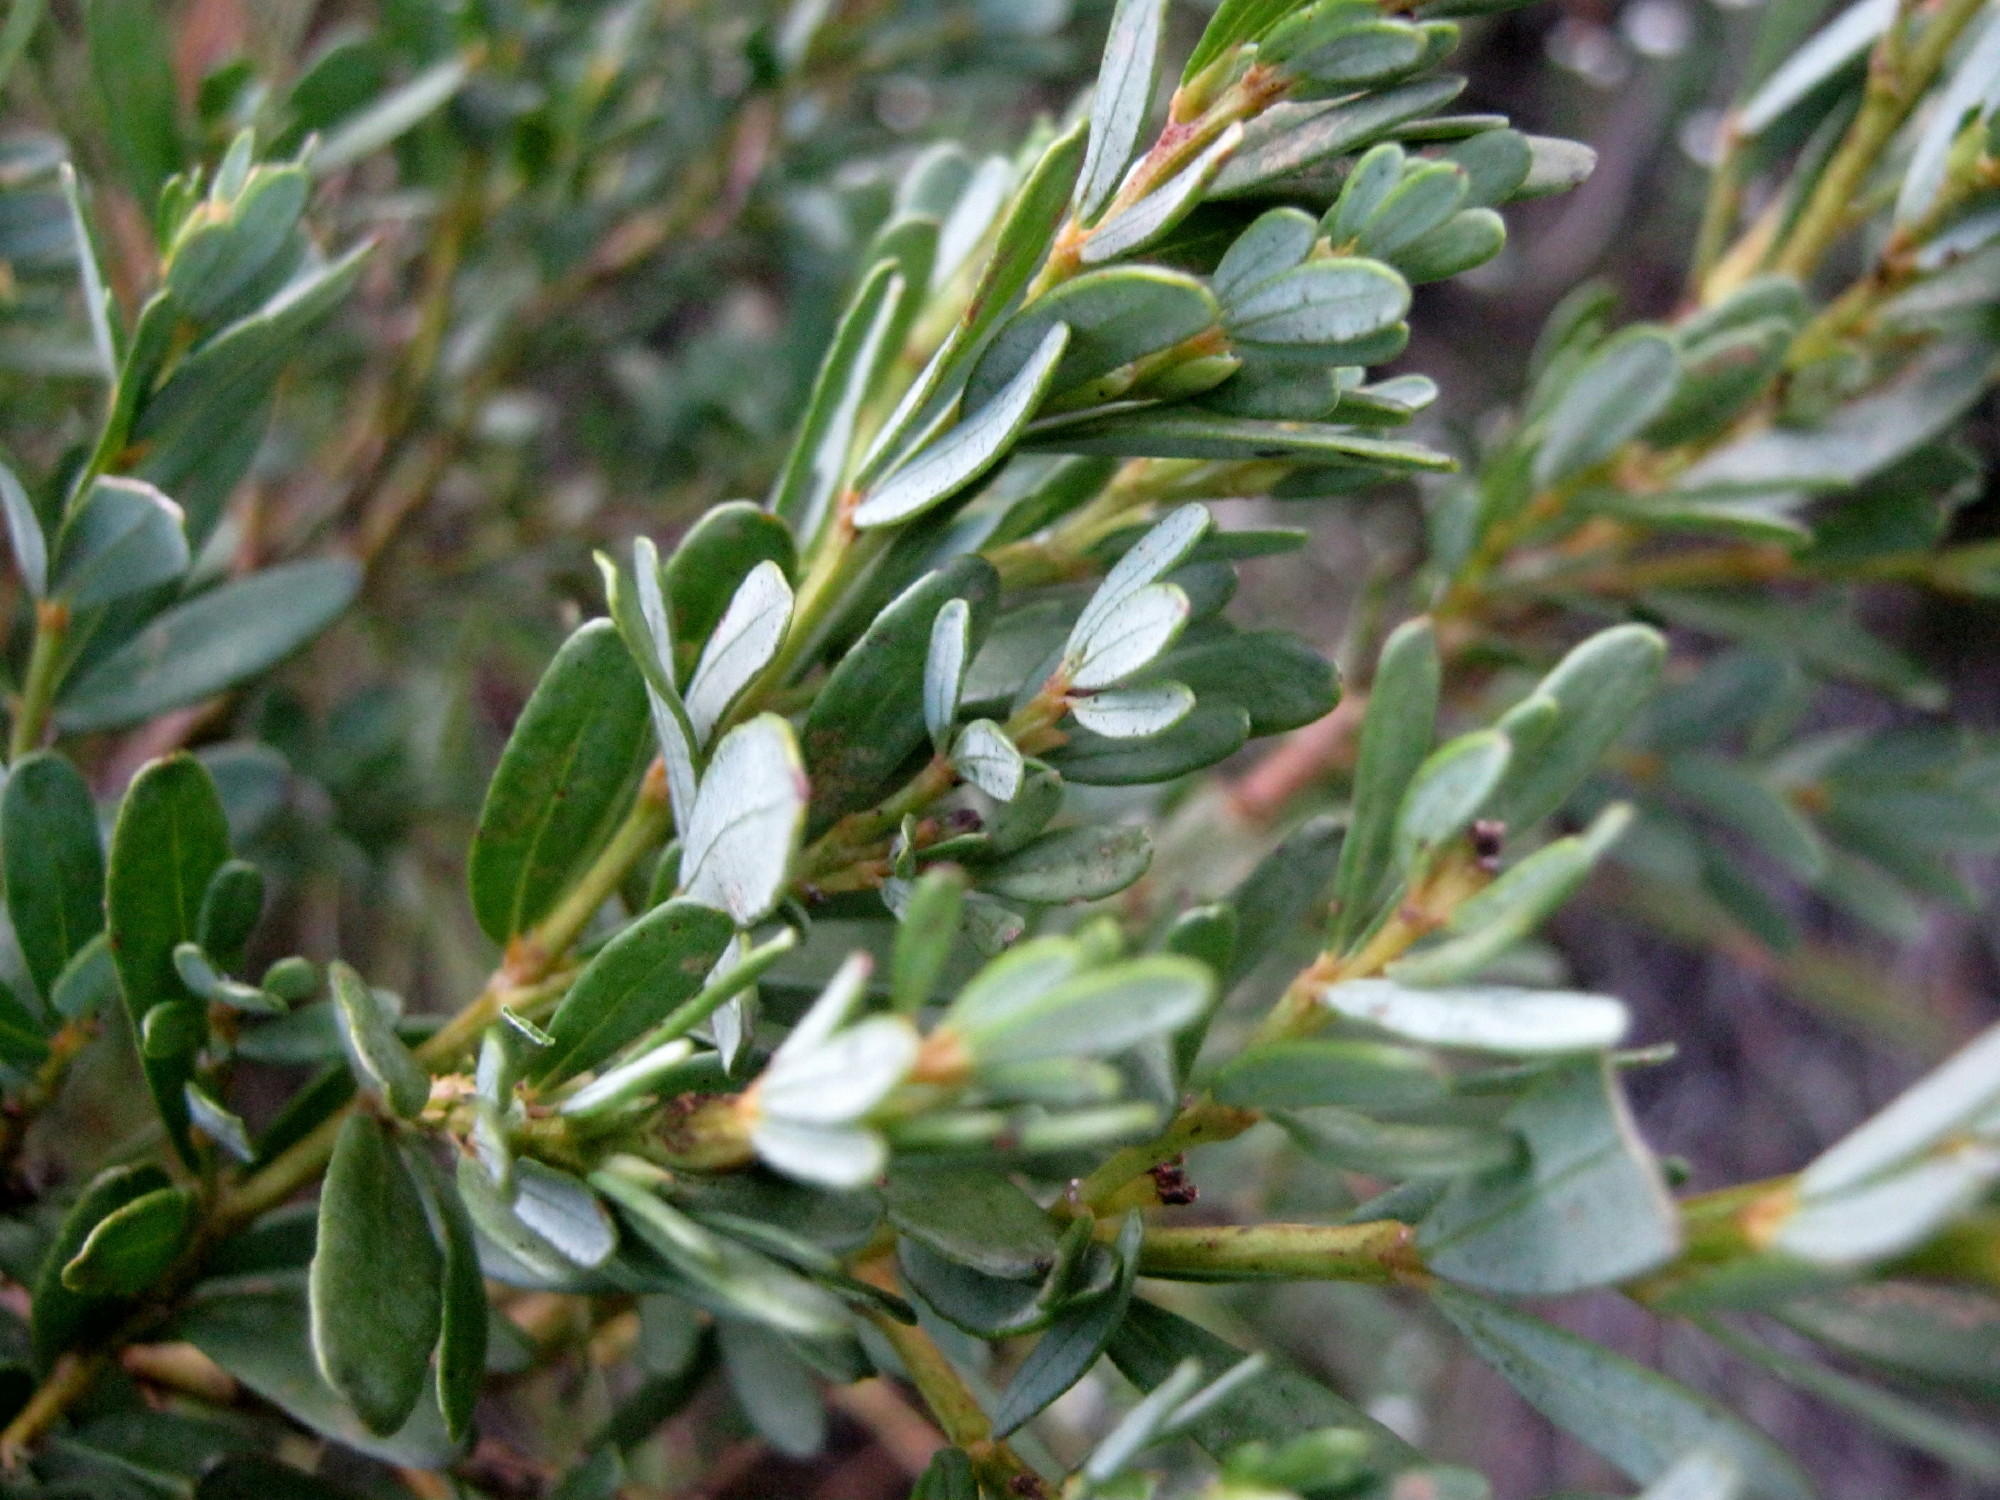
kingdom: Plantae
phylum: Tracheophyta
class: Magnoliopsida
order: Fabales
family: Fabaceae
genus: Cyclopia
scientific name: Cyclopia subternata
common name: Honeybush tea
